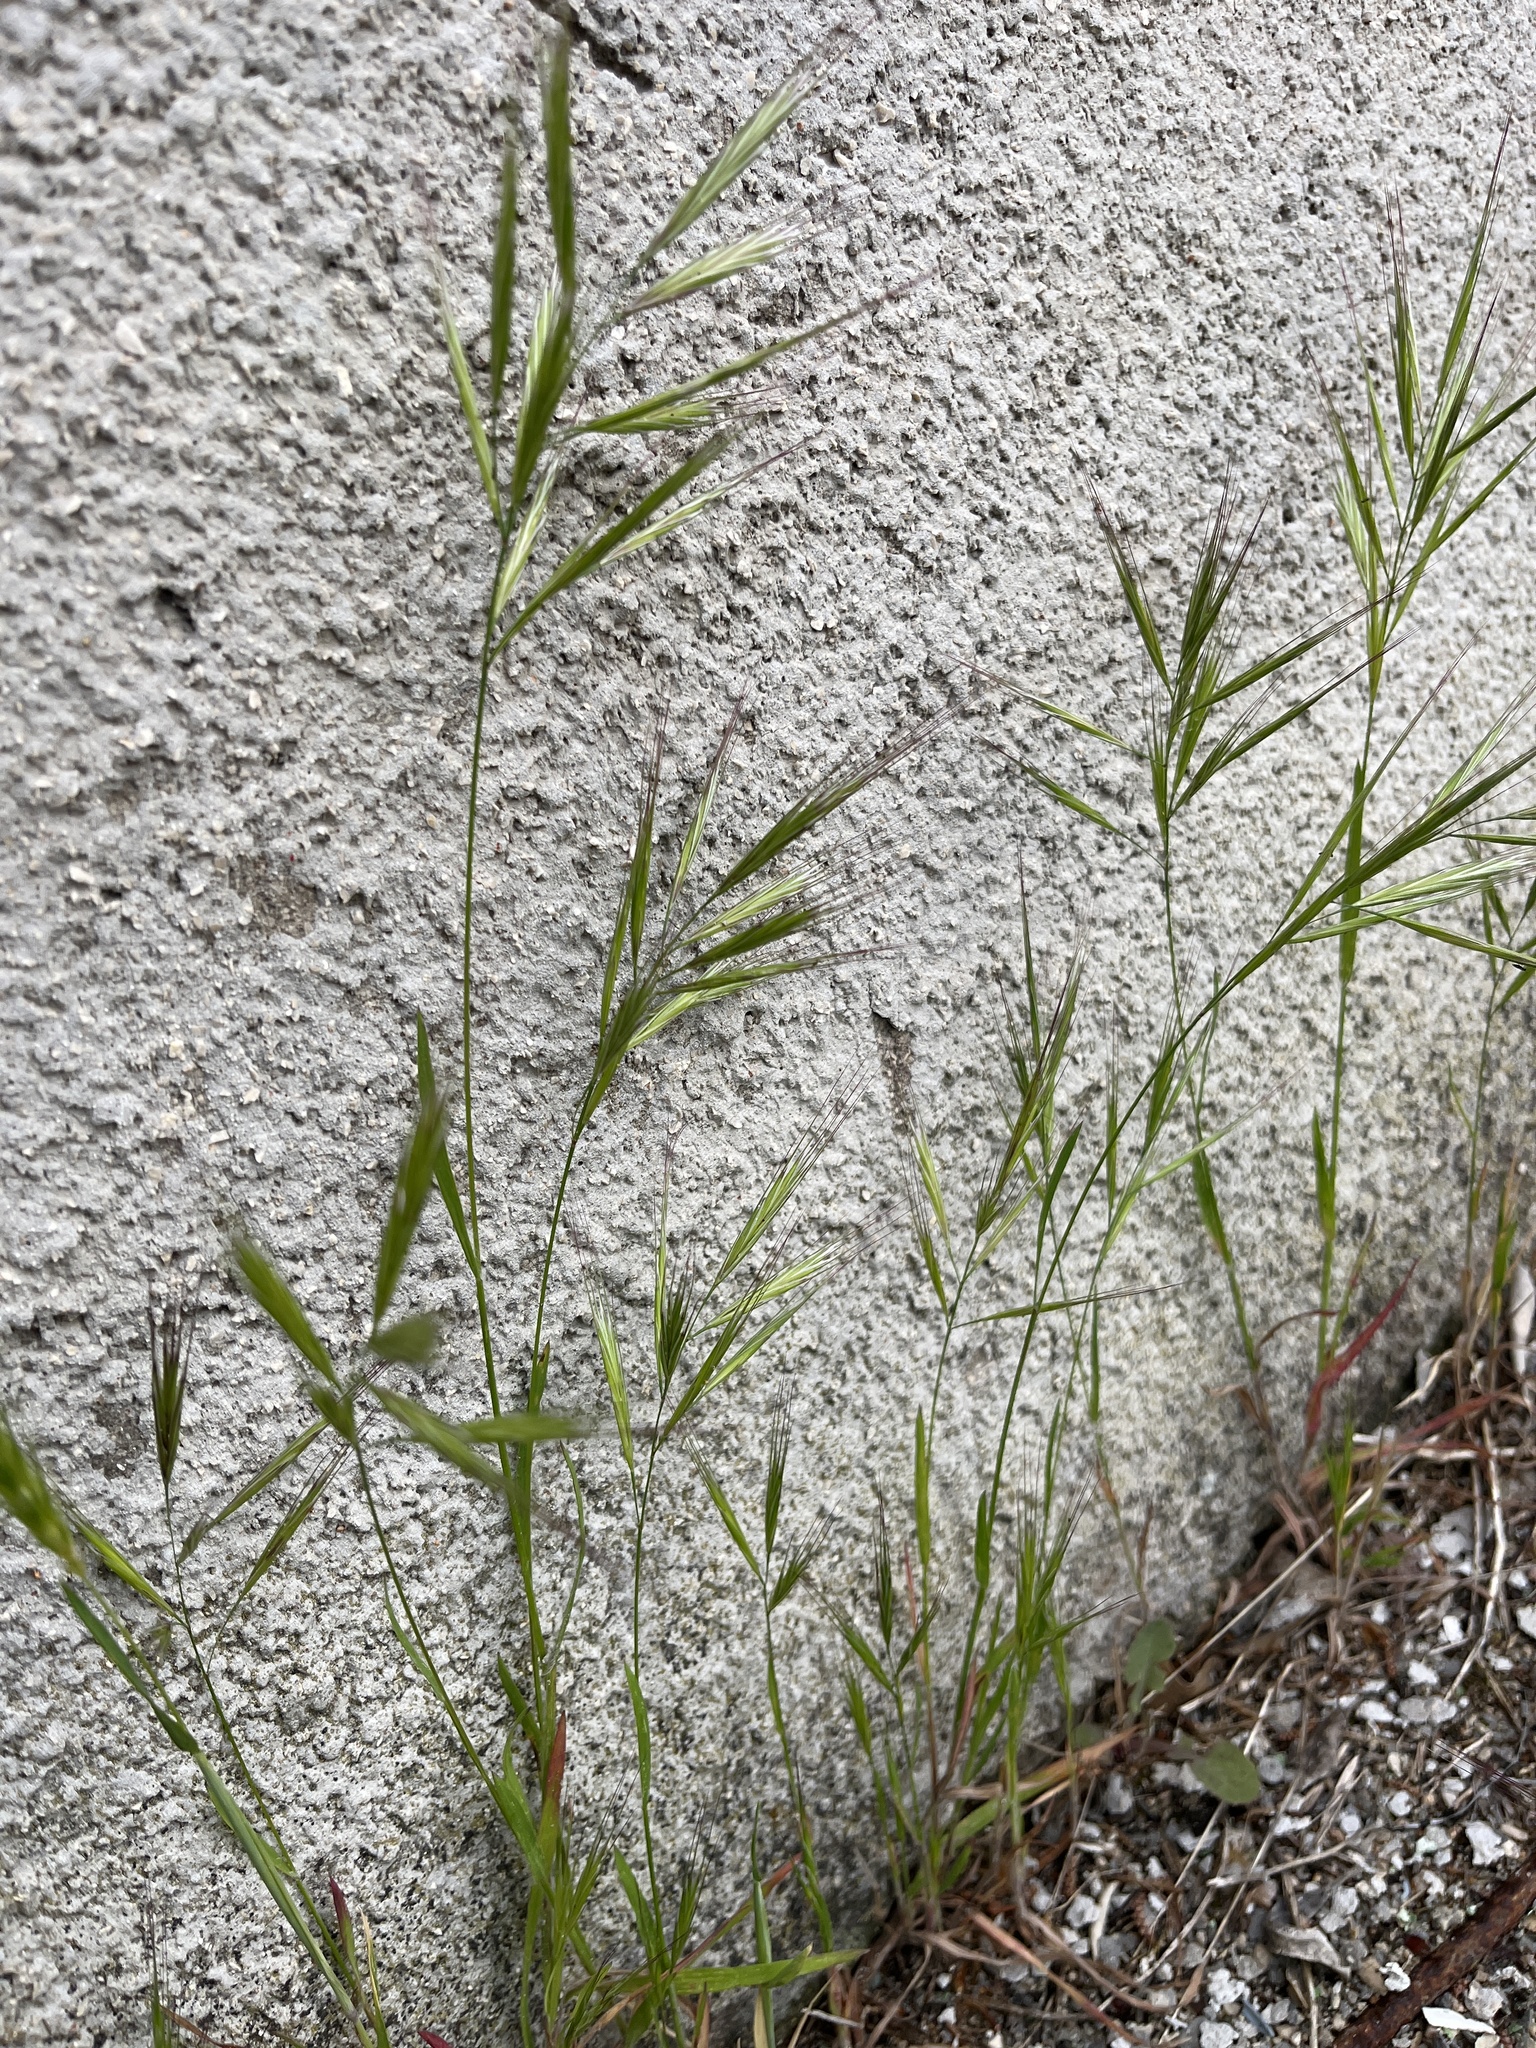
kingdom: Plantae
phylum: Tracheophyta
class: Liliopsida
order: Poales
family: Poaceae
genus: Bromus
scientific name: Bromus madritensis
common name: Compact brome
